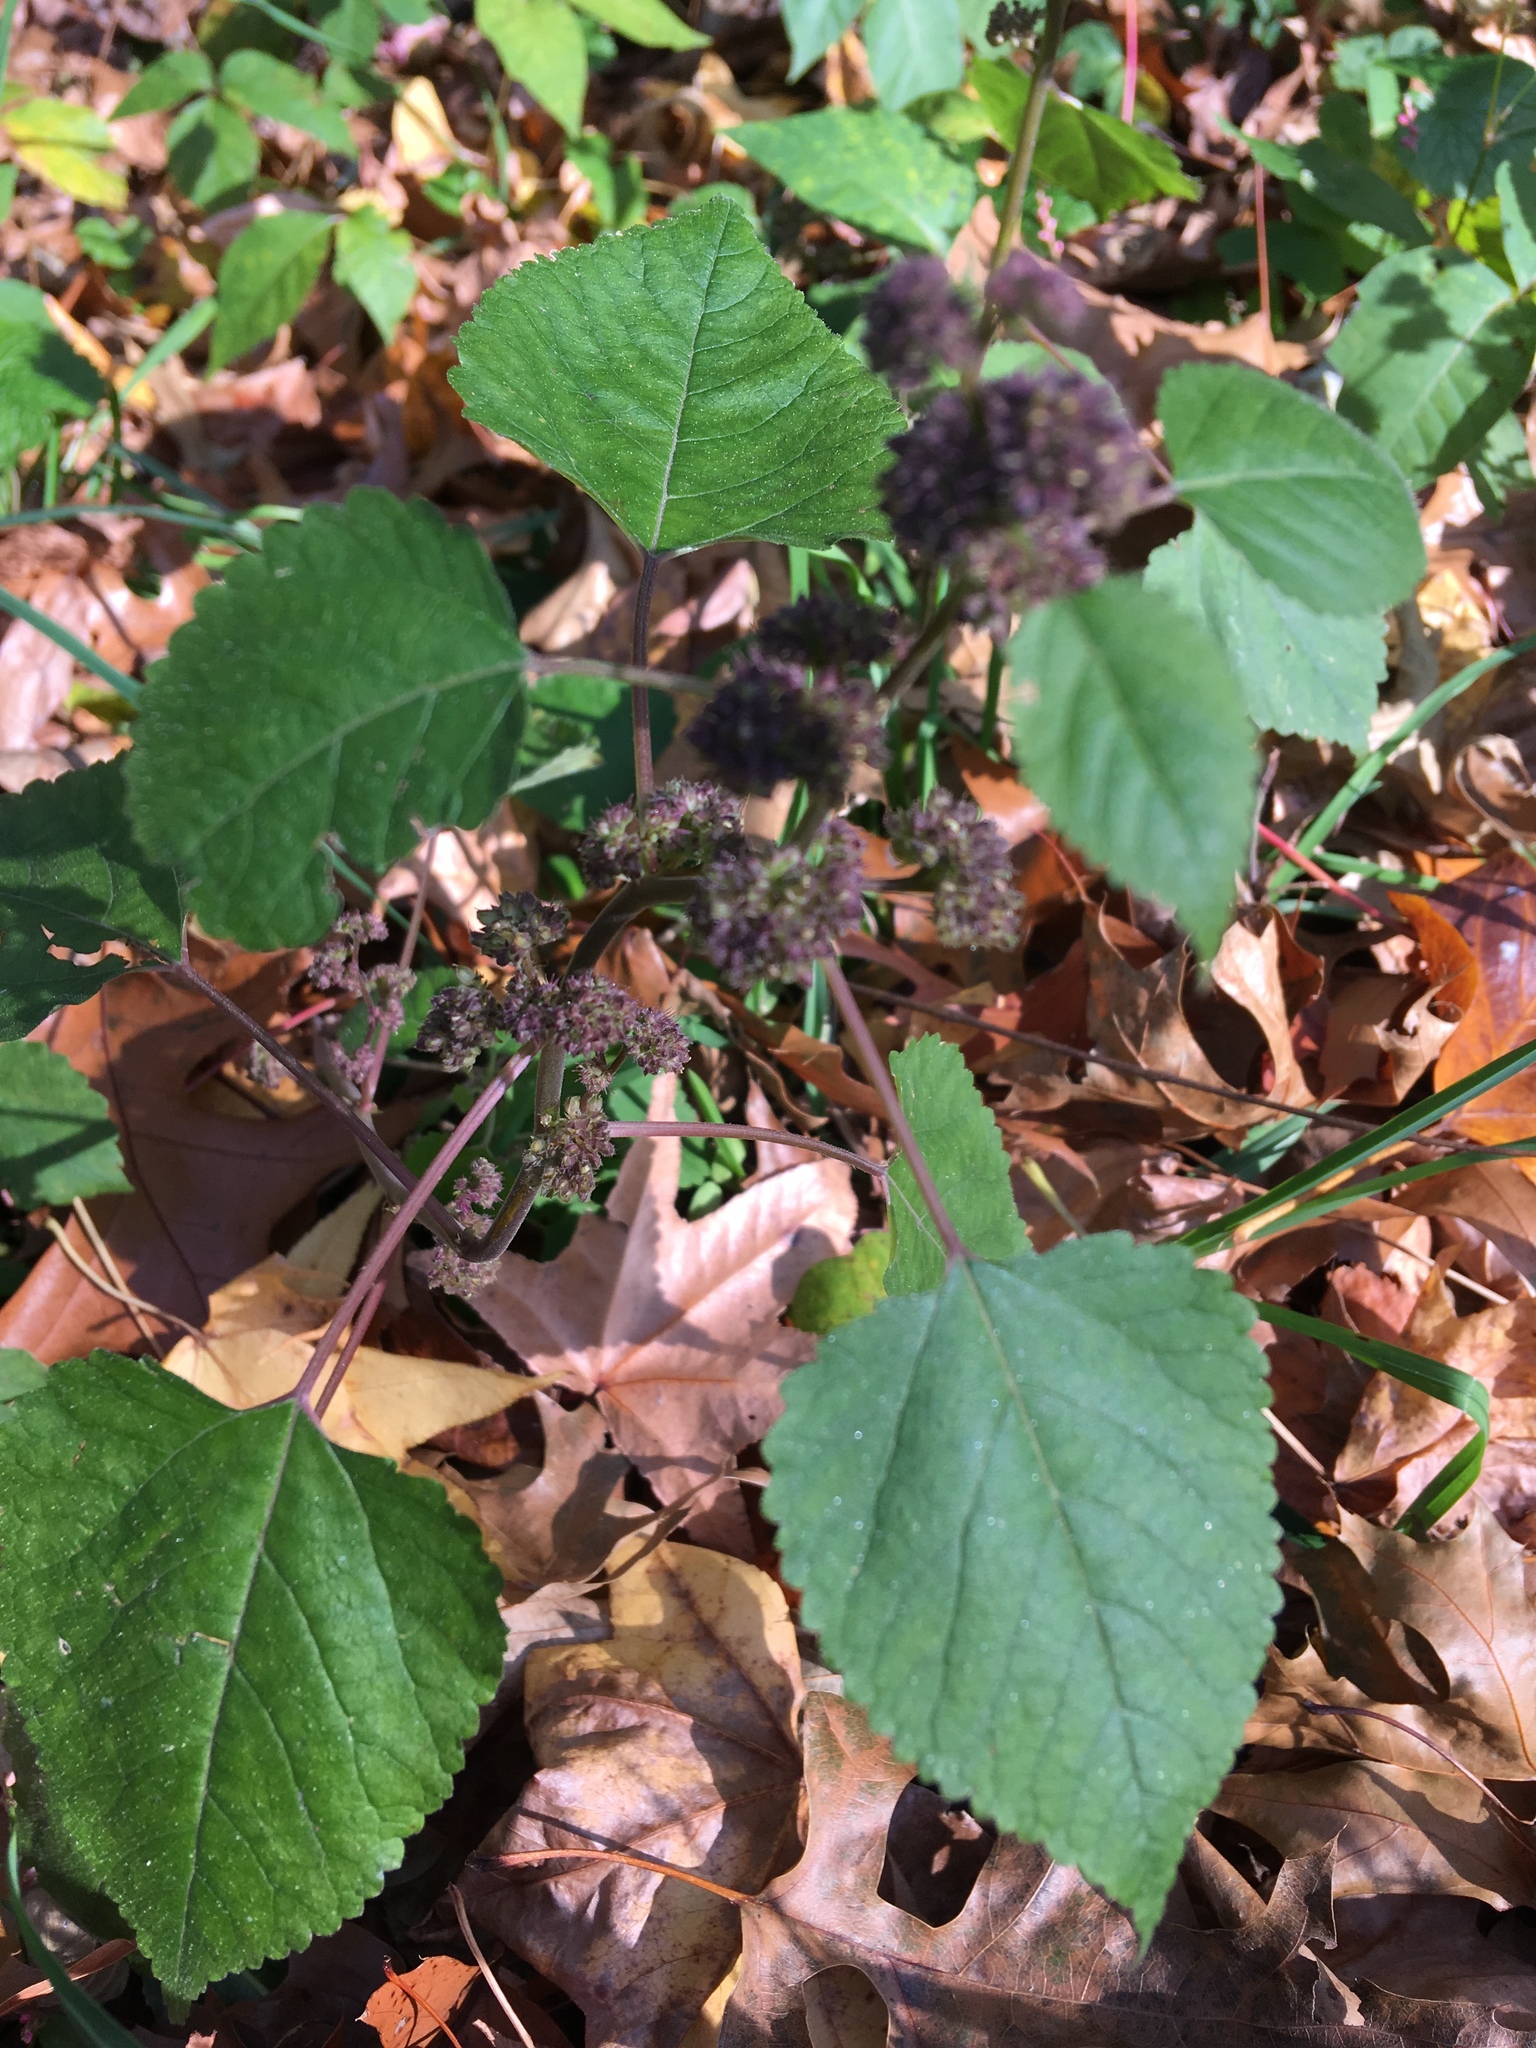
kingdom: Plantae
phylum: Tracheophyta
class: Magnoliopsida
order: Rosales
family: Moraceae
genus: Fatoua
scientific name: Fatoua villosa
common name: Hairy crabweed
